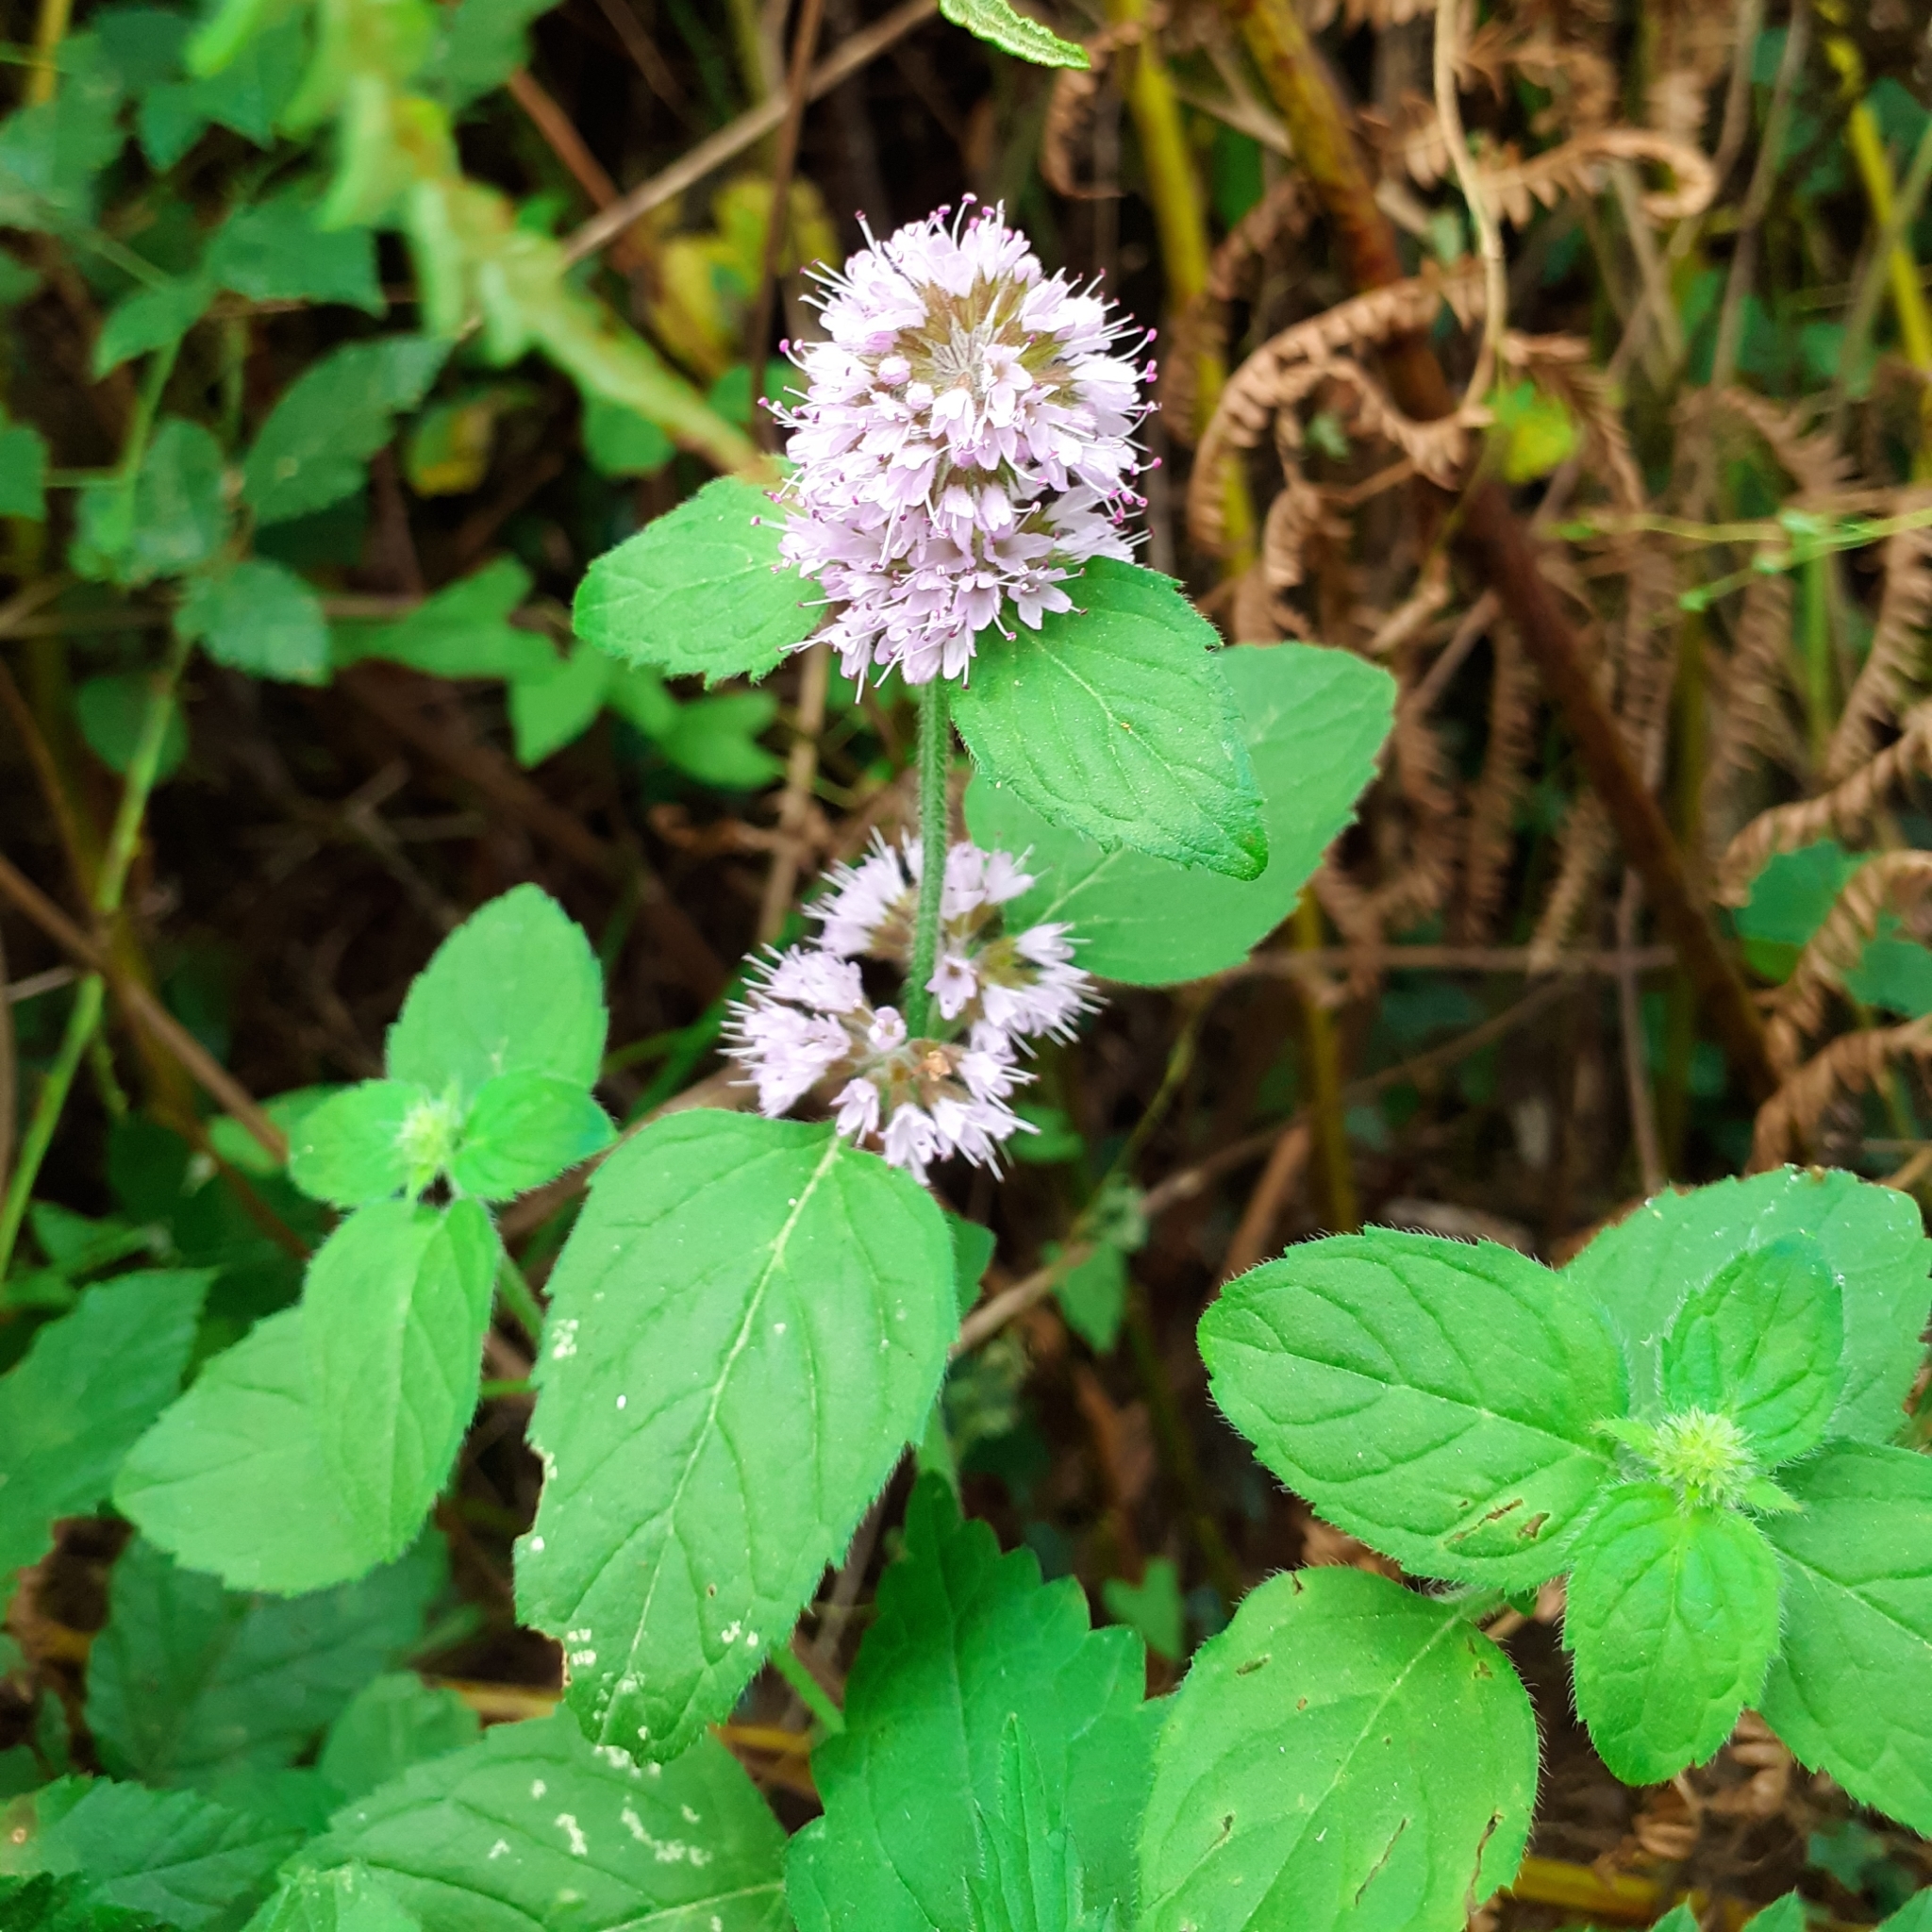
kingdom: Plantae
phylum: Tracheophyta
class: Magnoliopsida
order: Lamiales
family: Lamiaceae
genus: Mentha
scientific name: Mentha aquatica
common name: Water mint
